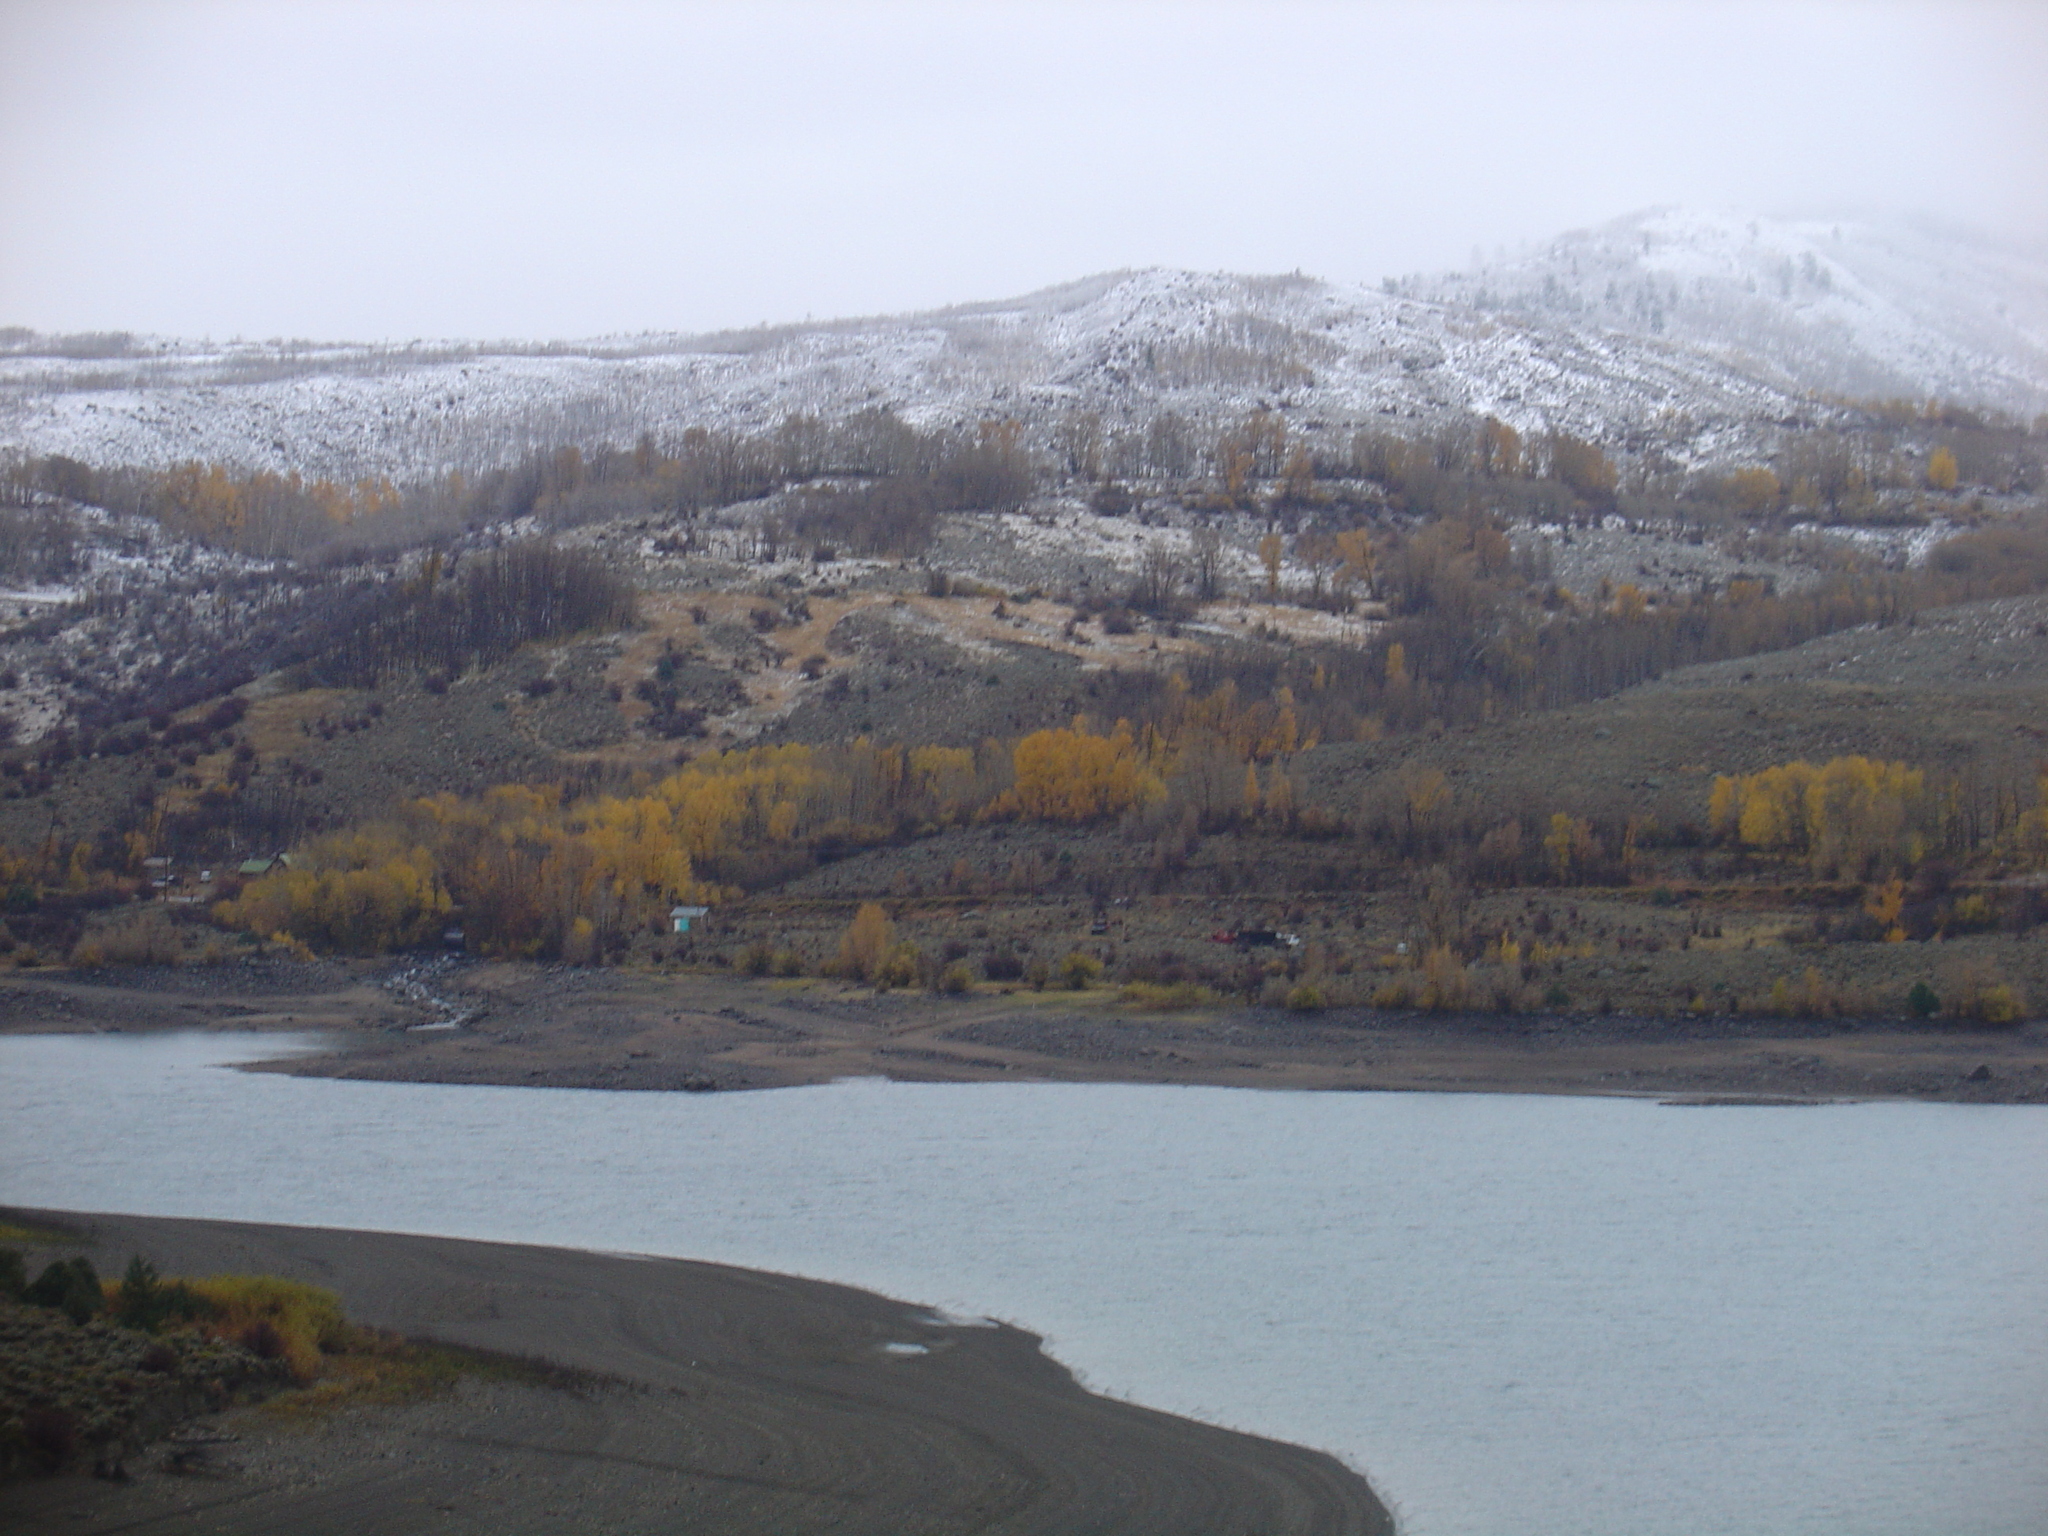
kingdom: Plantae
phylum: Tracheophyta
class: Magnoliopsida
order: Malpighiales
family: Salicaceae
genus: Populus
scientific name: Populus tremuloides
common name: Quaking aspen
